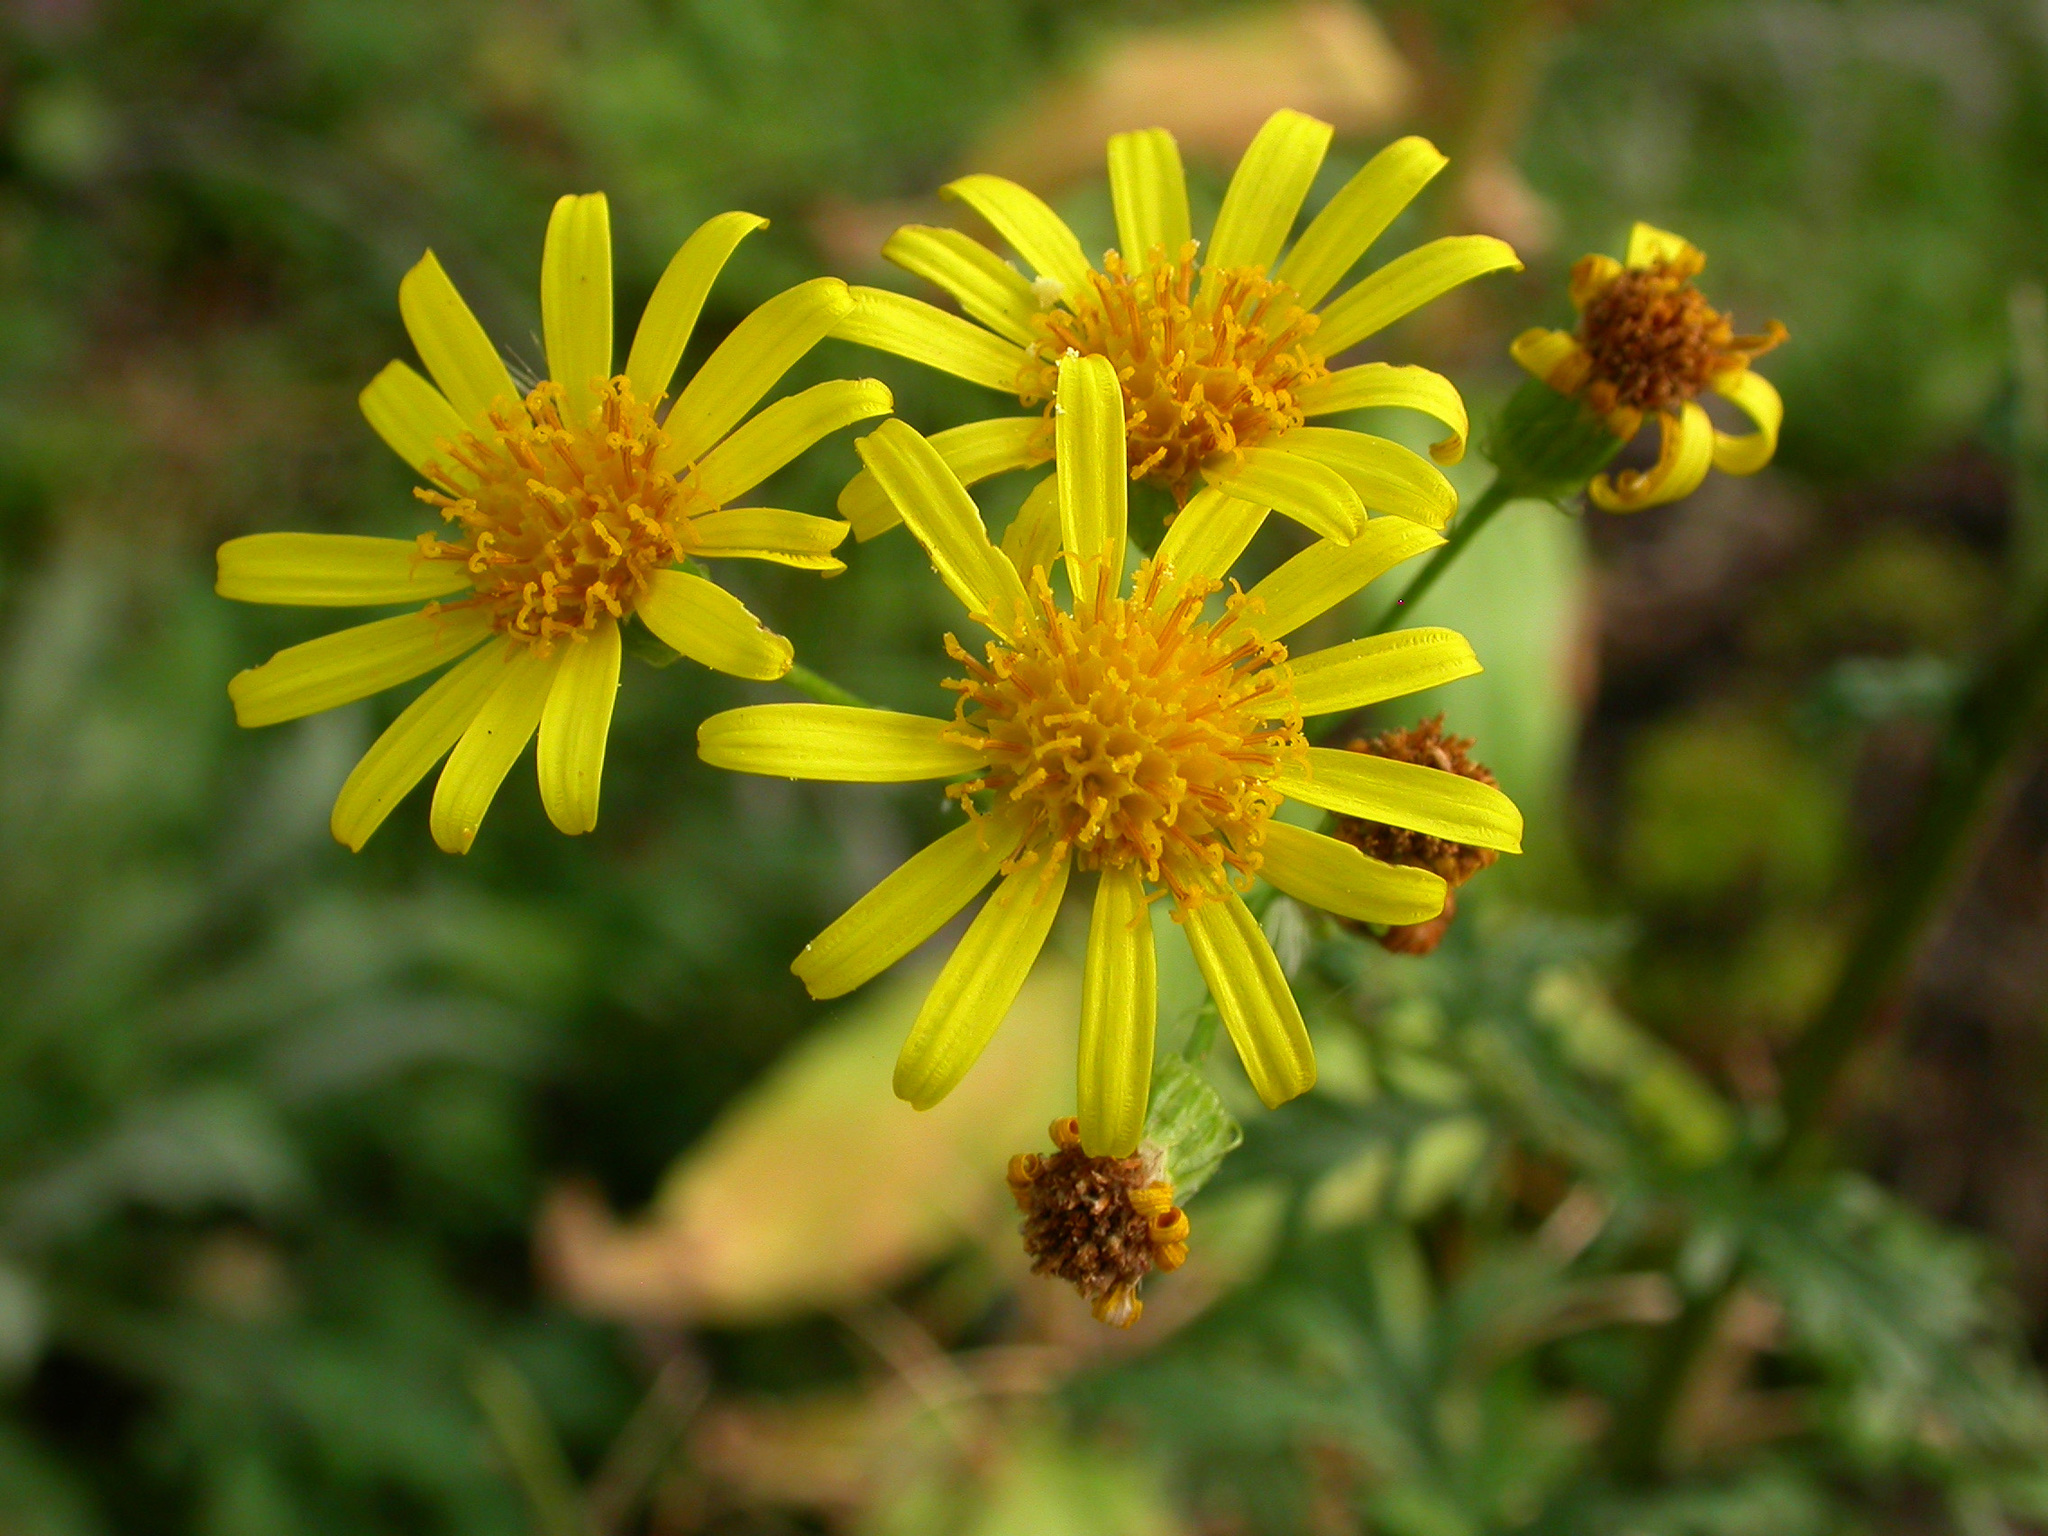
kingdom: Plantae
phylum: Tracheophyta
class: Magnoliopsida
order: Asterales
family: Asteraceae
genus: Jacobaea
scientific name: Jacobaea vulgaris
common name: Stinking willie
